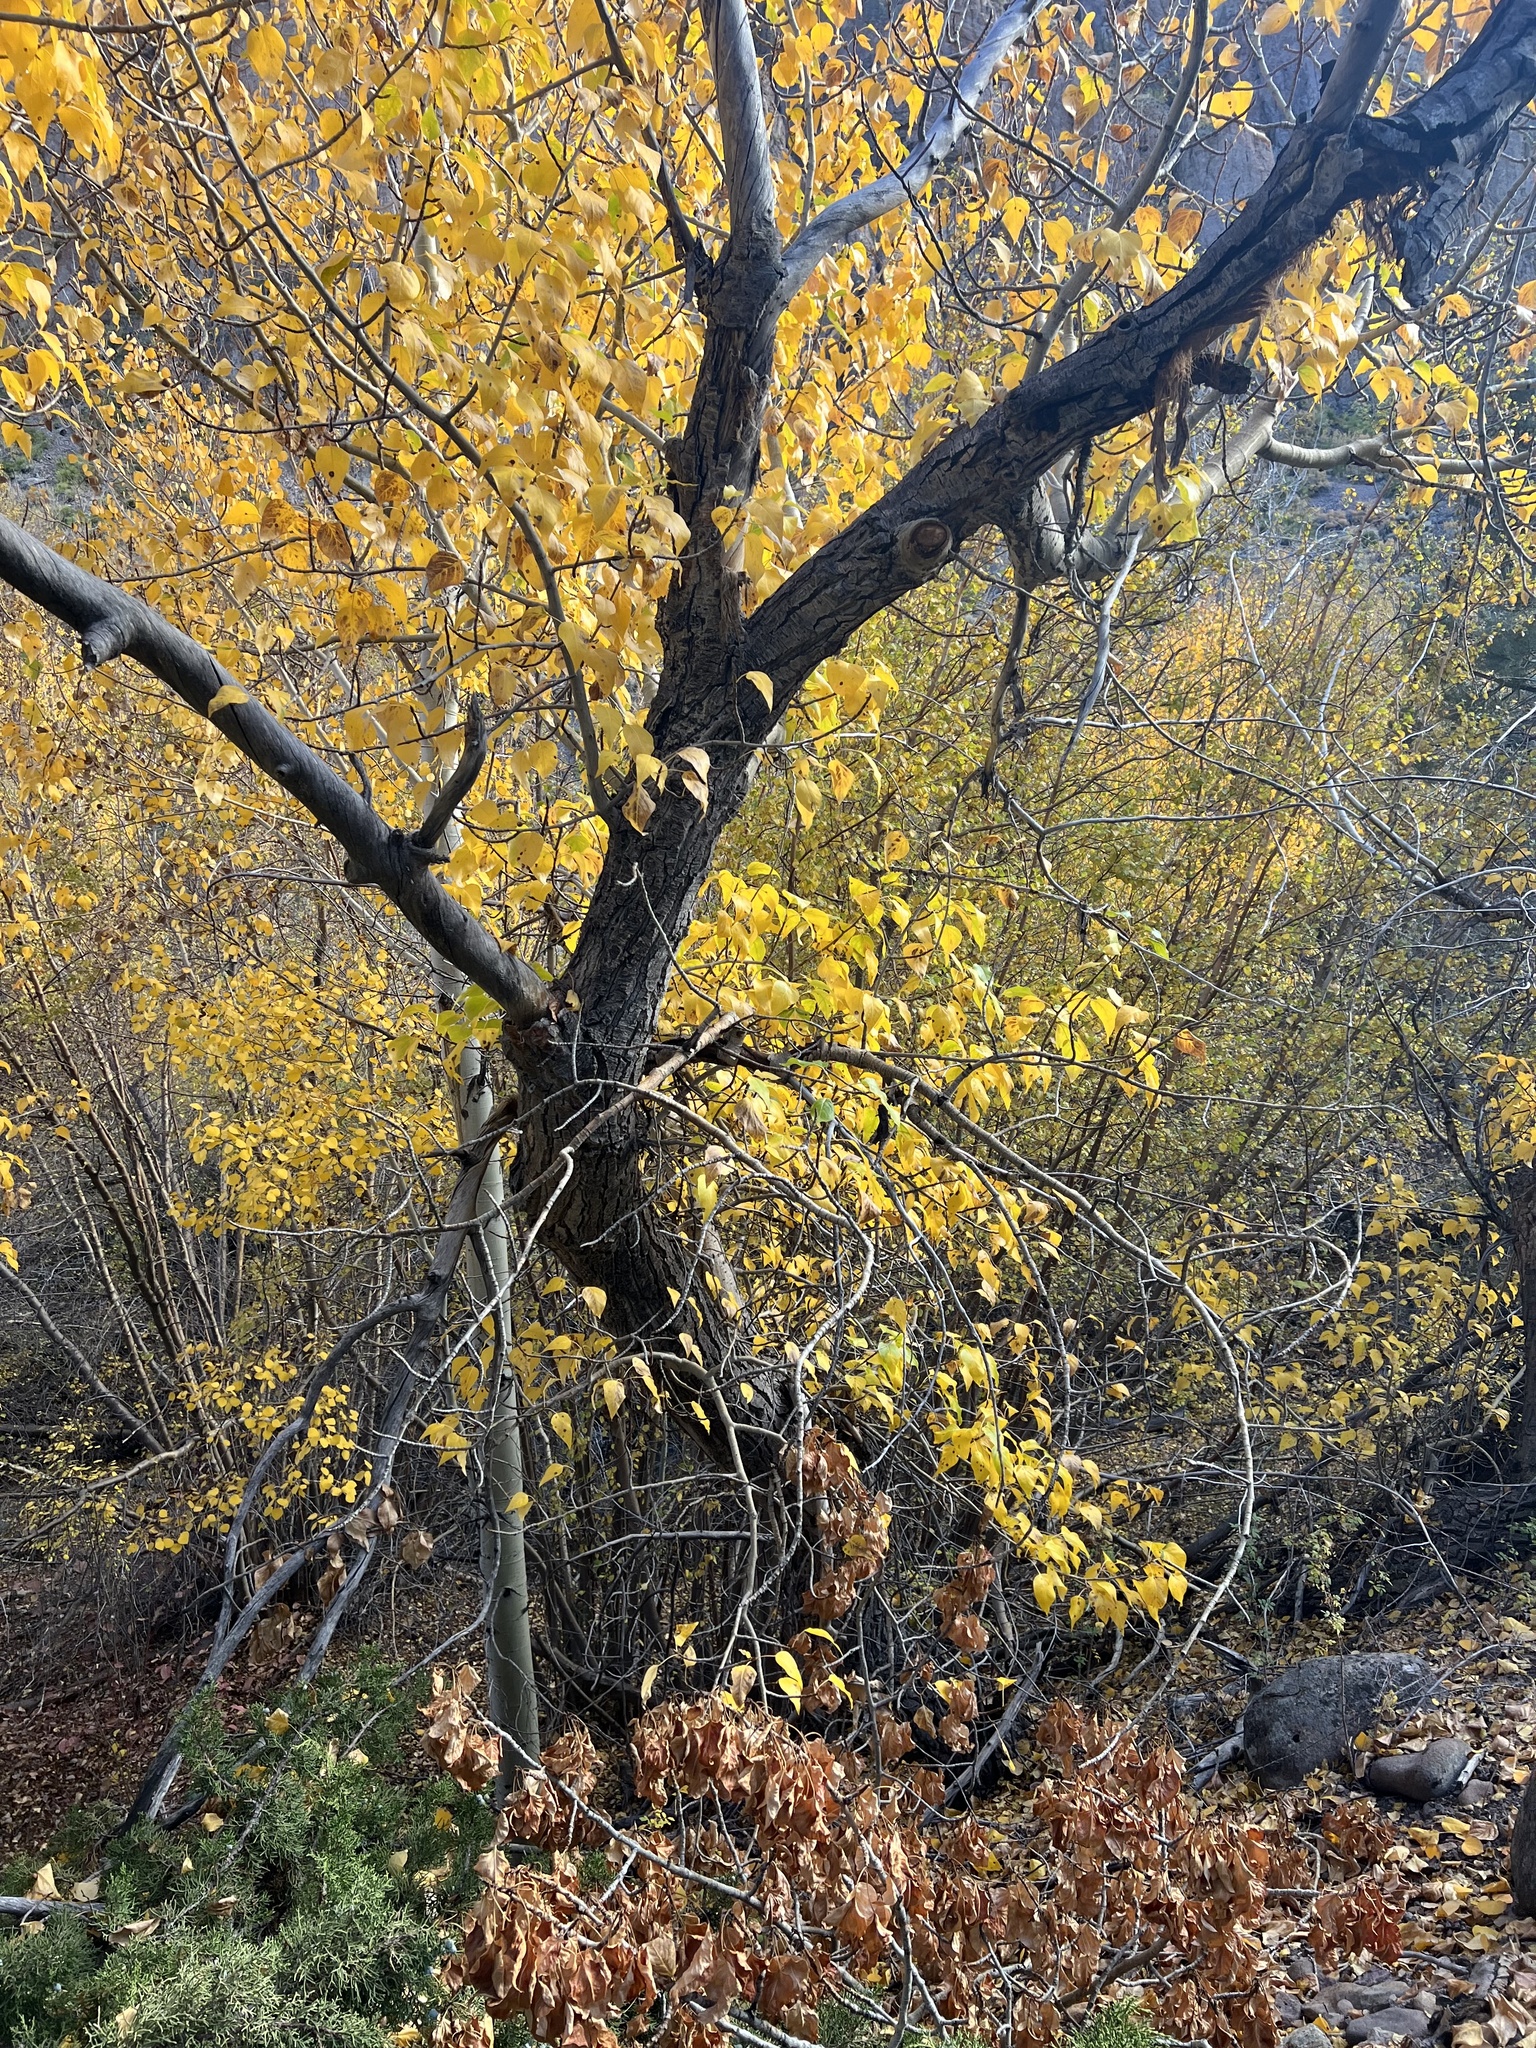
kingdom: Plantae
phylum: Tracheophyta
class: Magnoliopsida
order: Malpighiales
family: Salicaceae
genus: Populus
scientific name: Populus trichocarpa
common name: Black cottonwood
